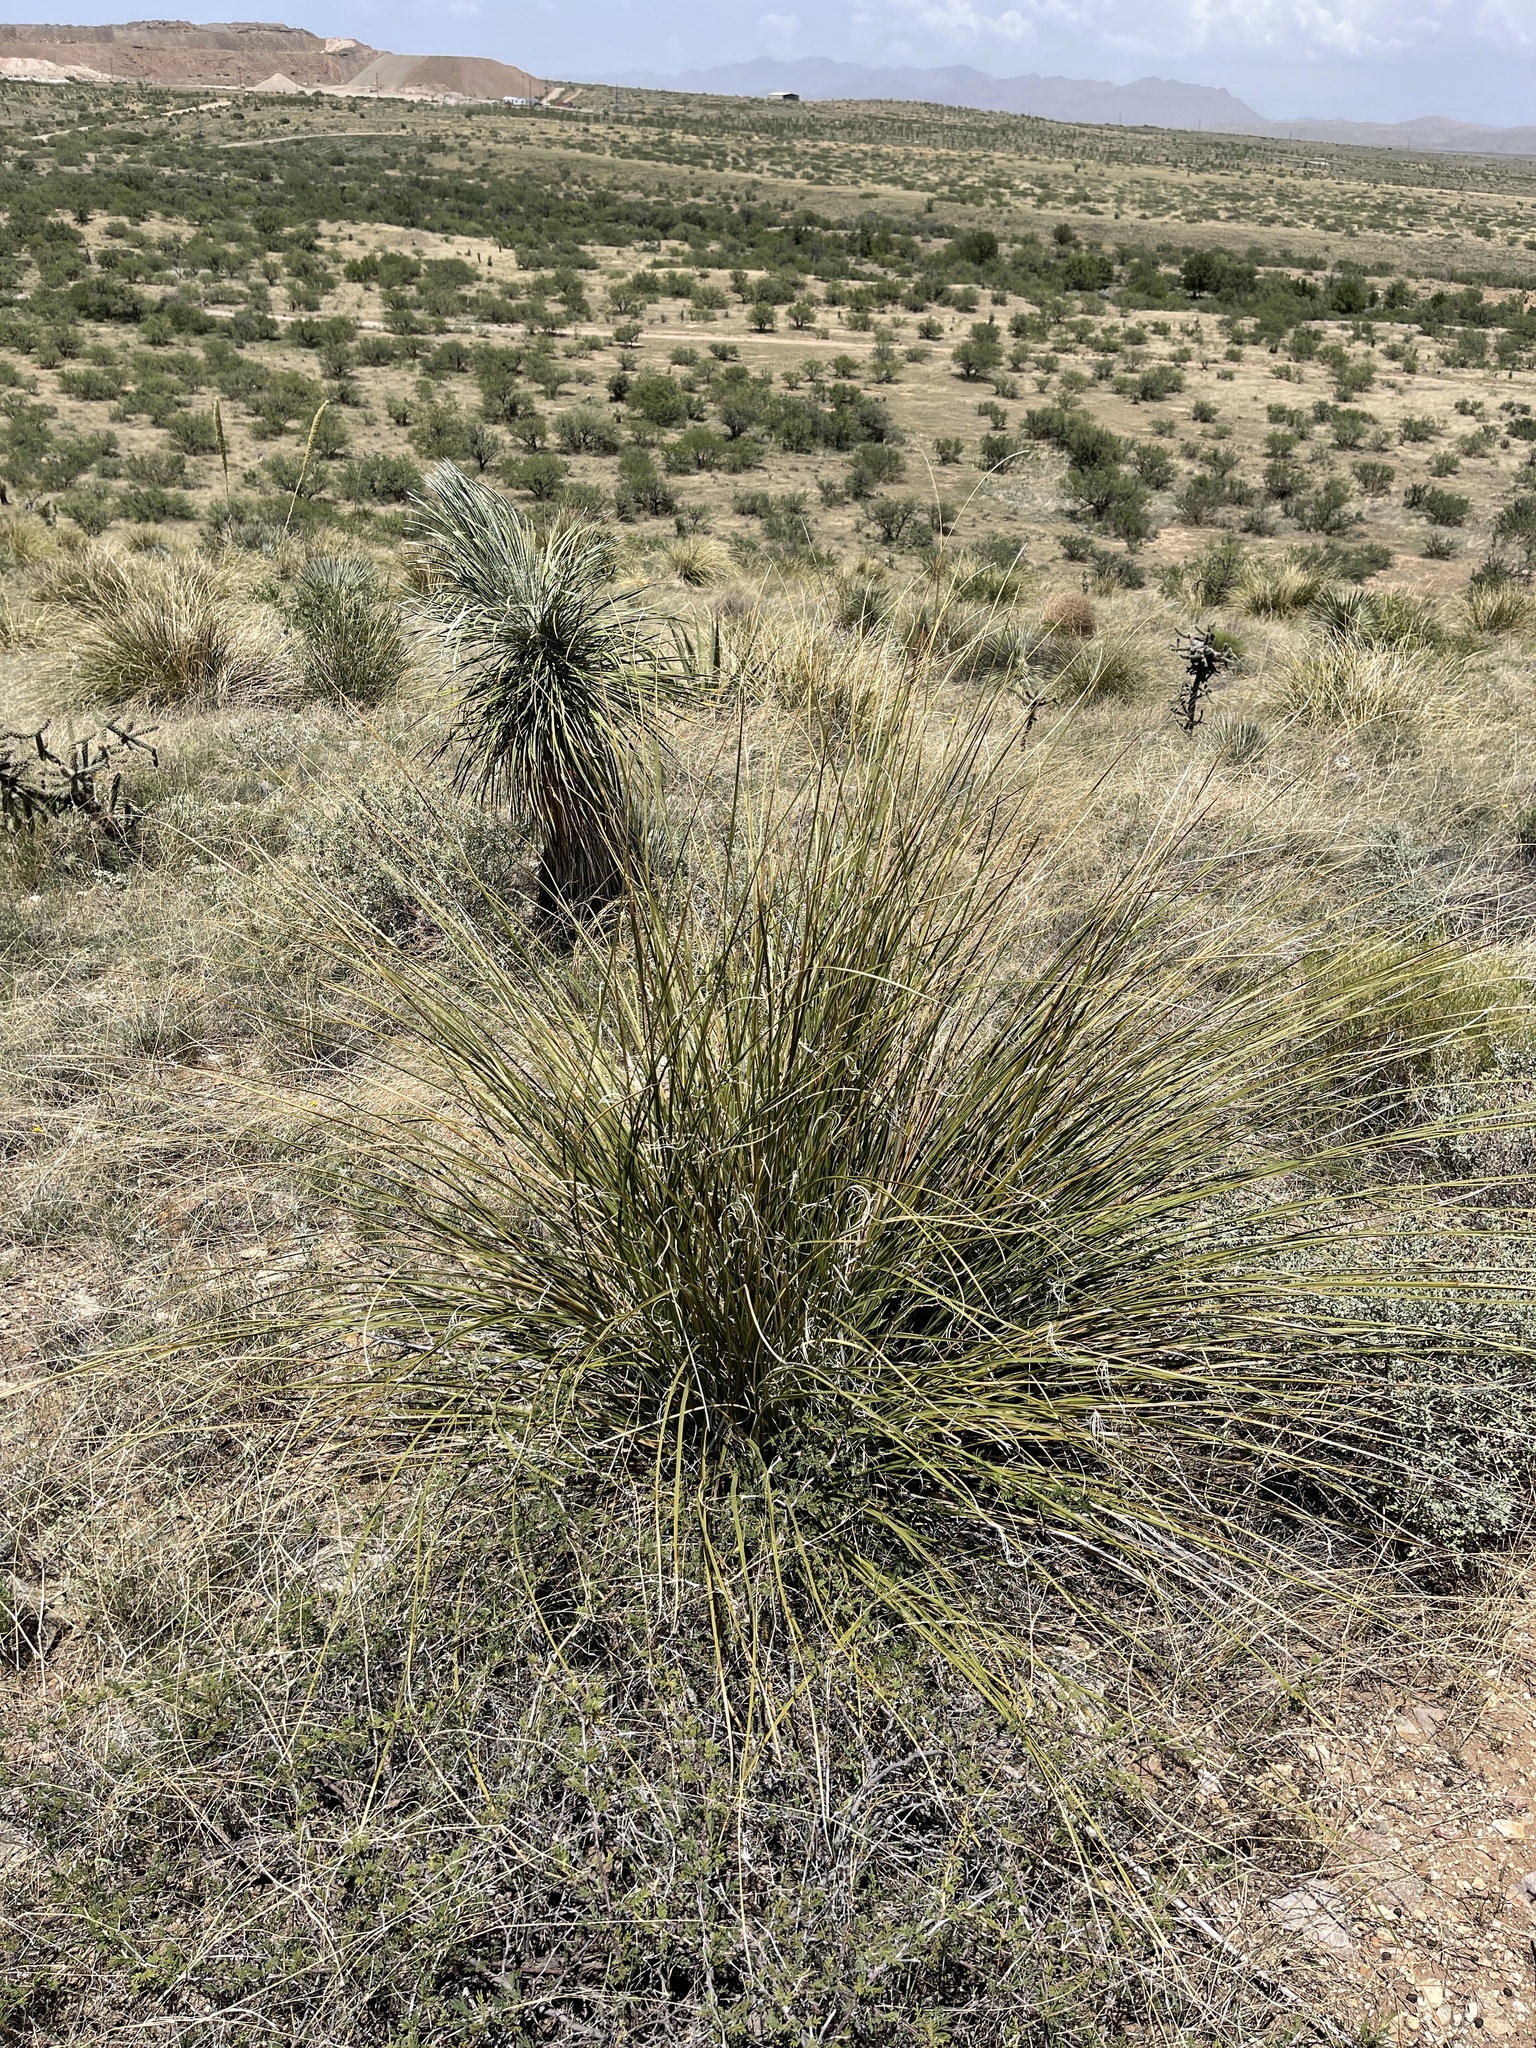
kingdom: Plantae
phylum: Tracheophyta
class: Liliopsida
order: Asparagales
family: Asparagaceae
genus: Nolina
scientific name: Nolina microcarpa
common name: Bear-grass
